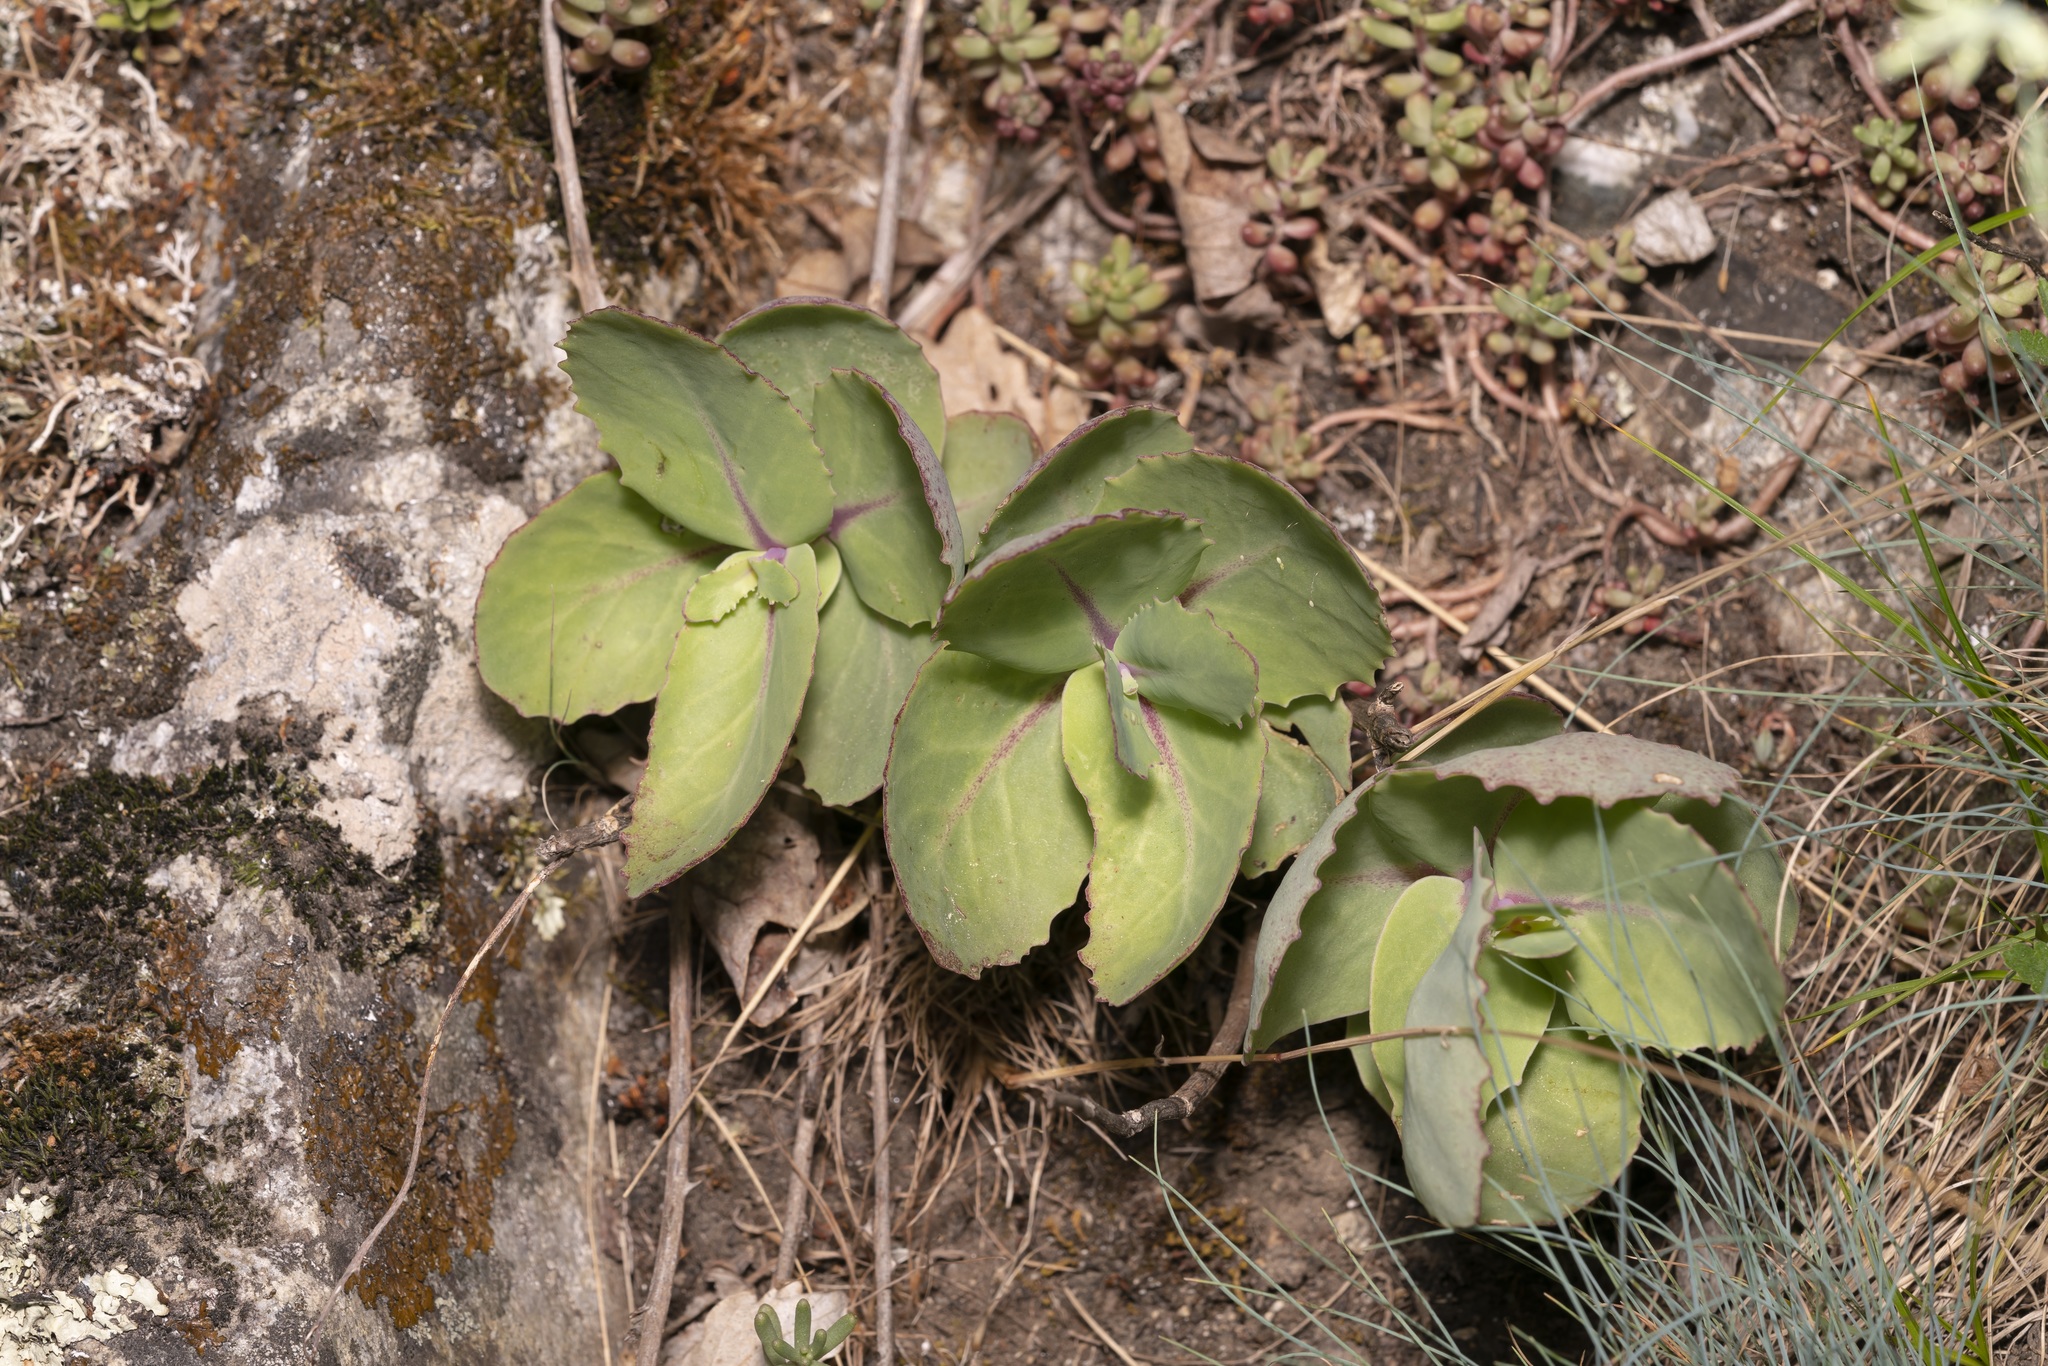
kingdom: Plantae
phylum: Tracheophyta
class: Magnoliopsida
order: Saxifragales
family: Crassulaceae
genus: Hylotelephium
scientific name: Hylotelephium maximum
